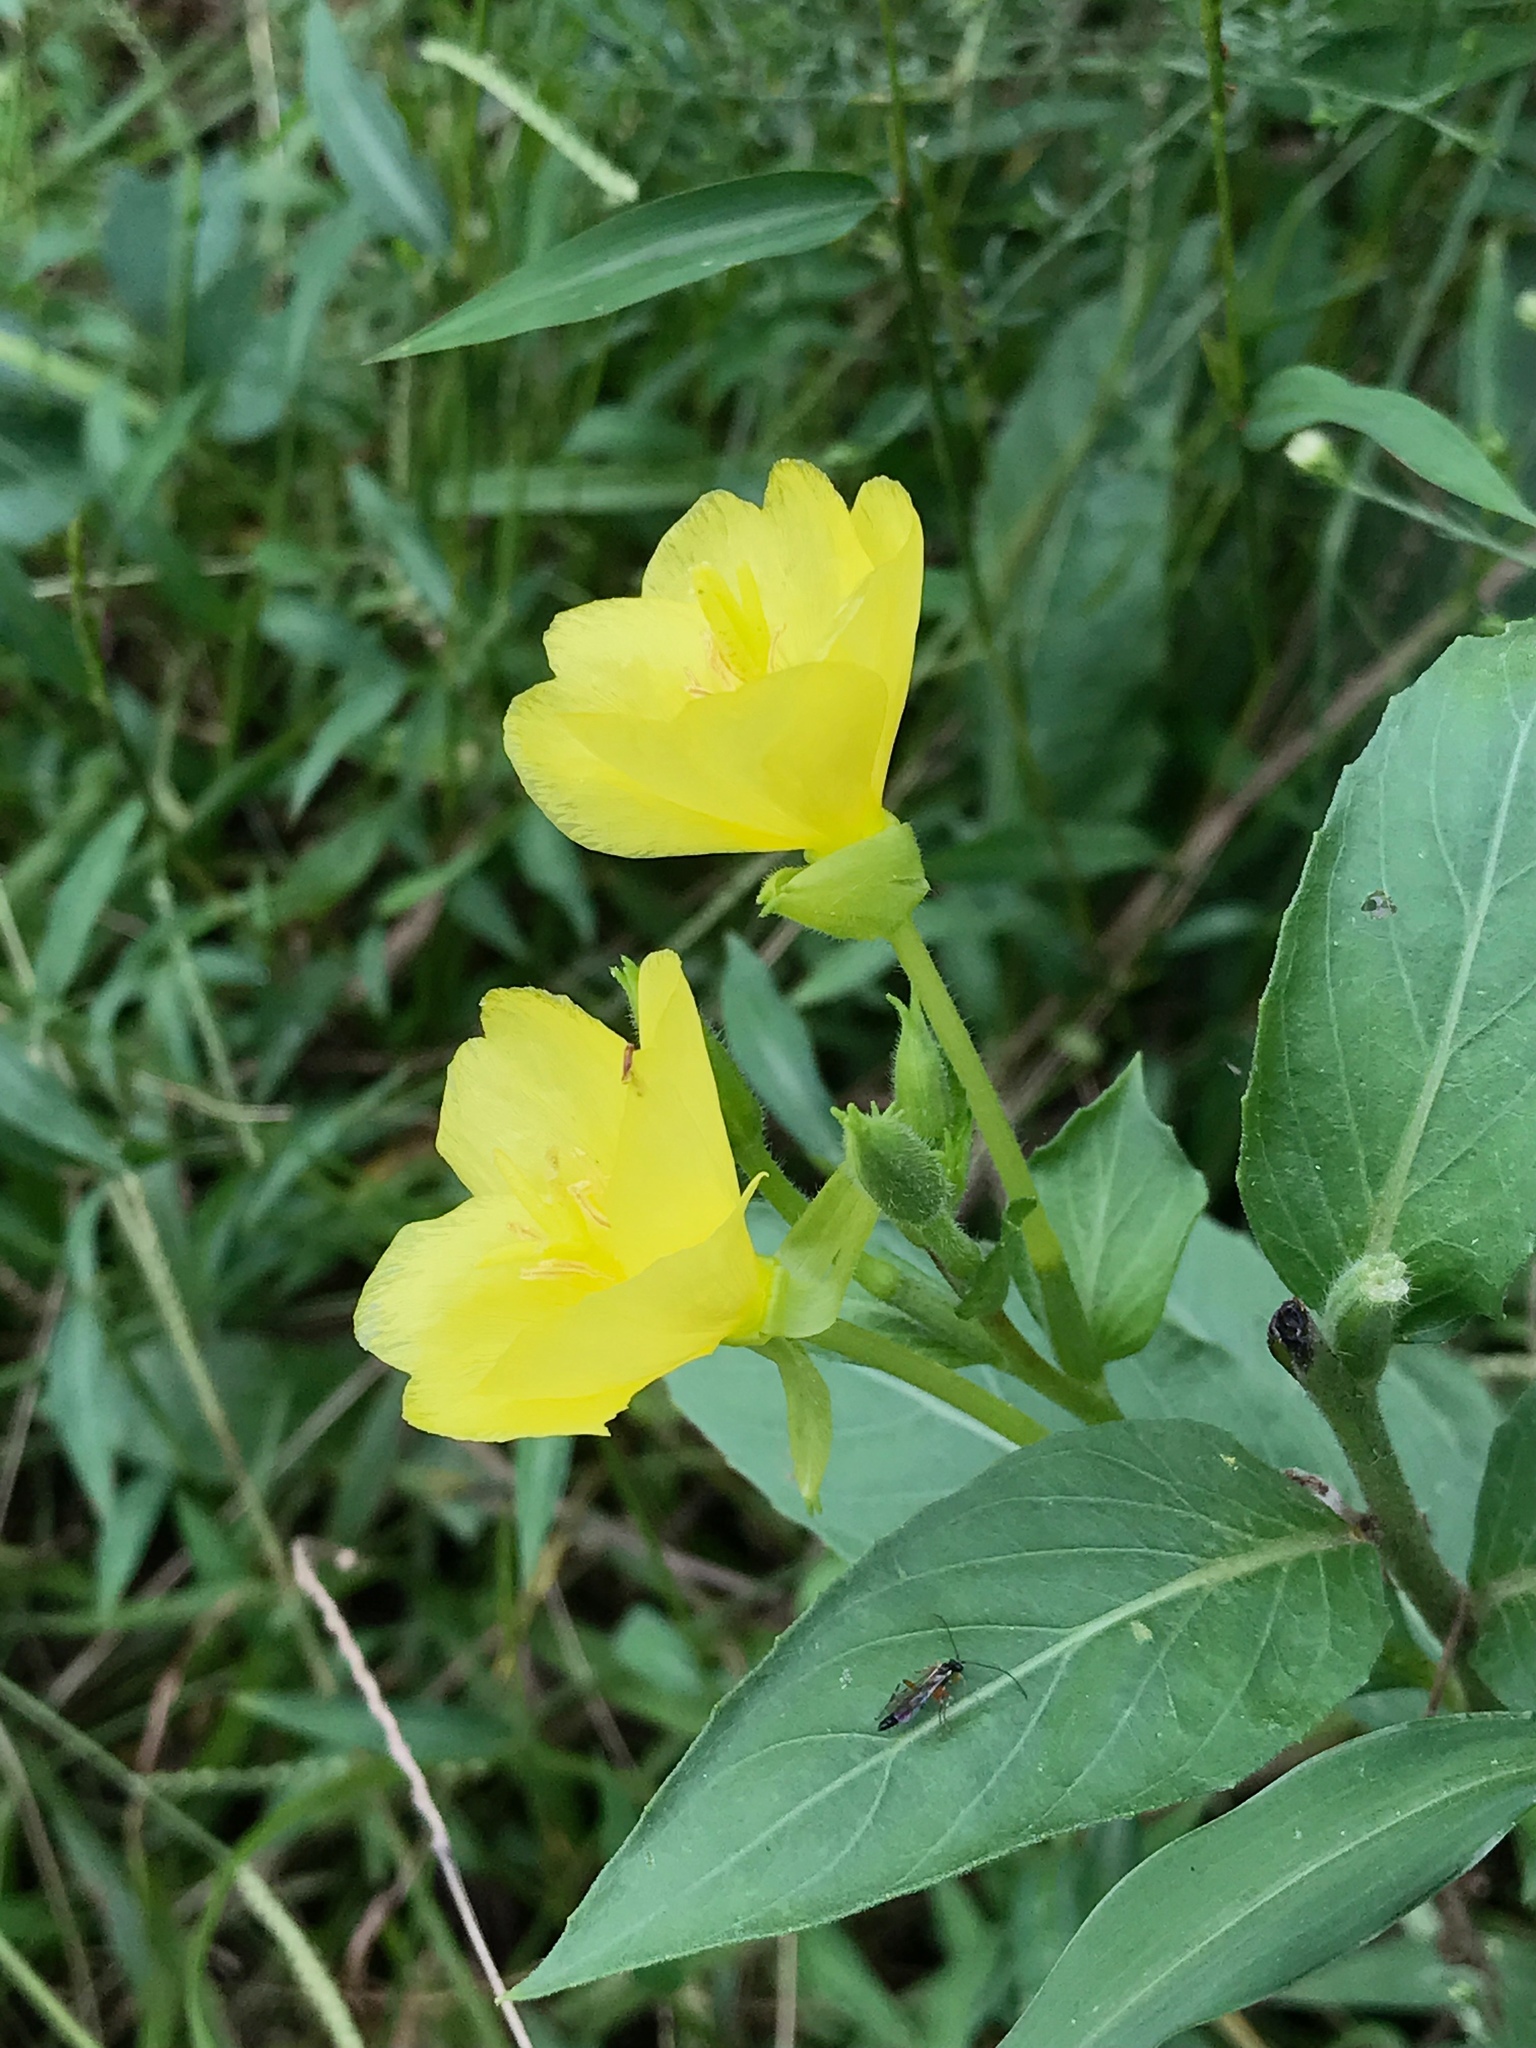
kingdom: Plantae
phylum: Tracheophyta
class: Magnoliopsida
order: Myrtales
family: Onagraceae
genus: Oenothera
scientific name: Oenothera biennis
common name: Common evening-primrose
